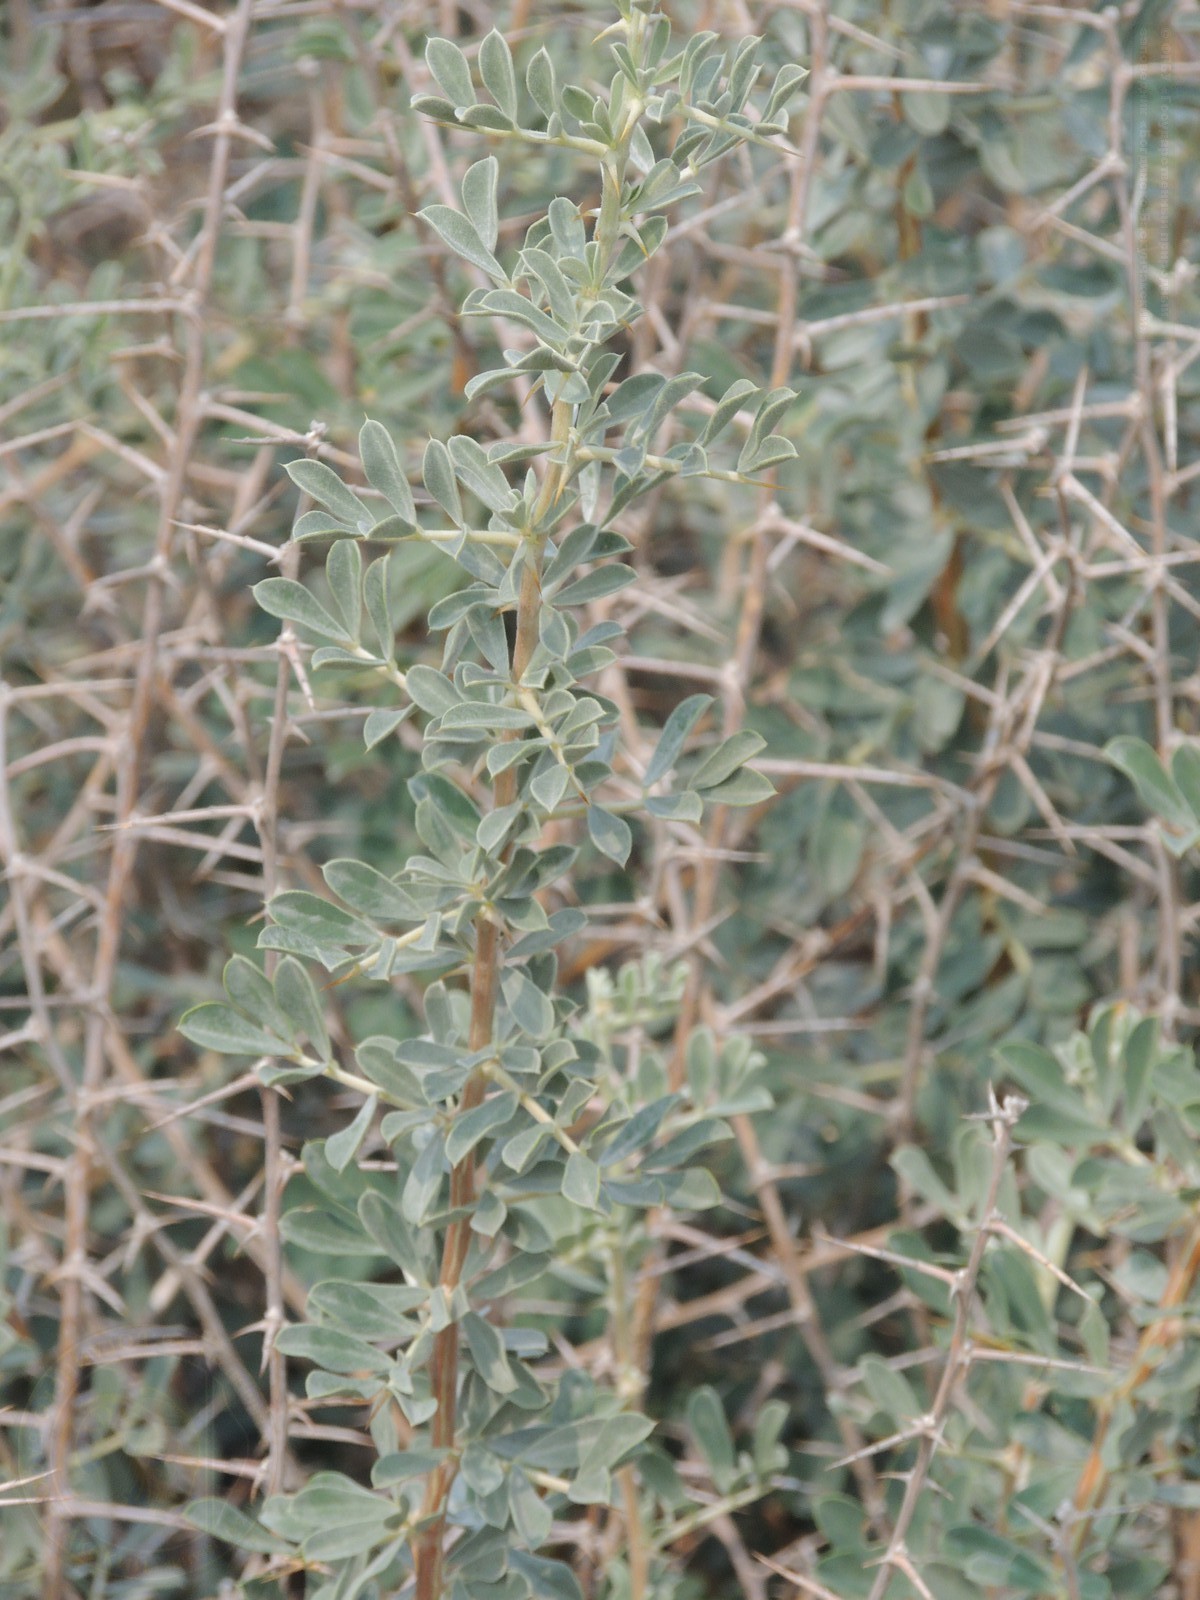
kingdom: Plantae
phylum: Tracheophyta
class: Magnoliopsida
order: Fabales
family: Fabaceae
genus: Caragana
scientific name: Caragana halodendron
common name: Siberian salt-tree
